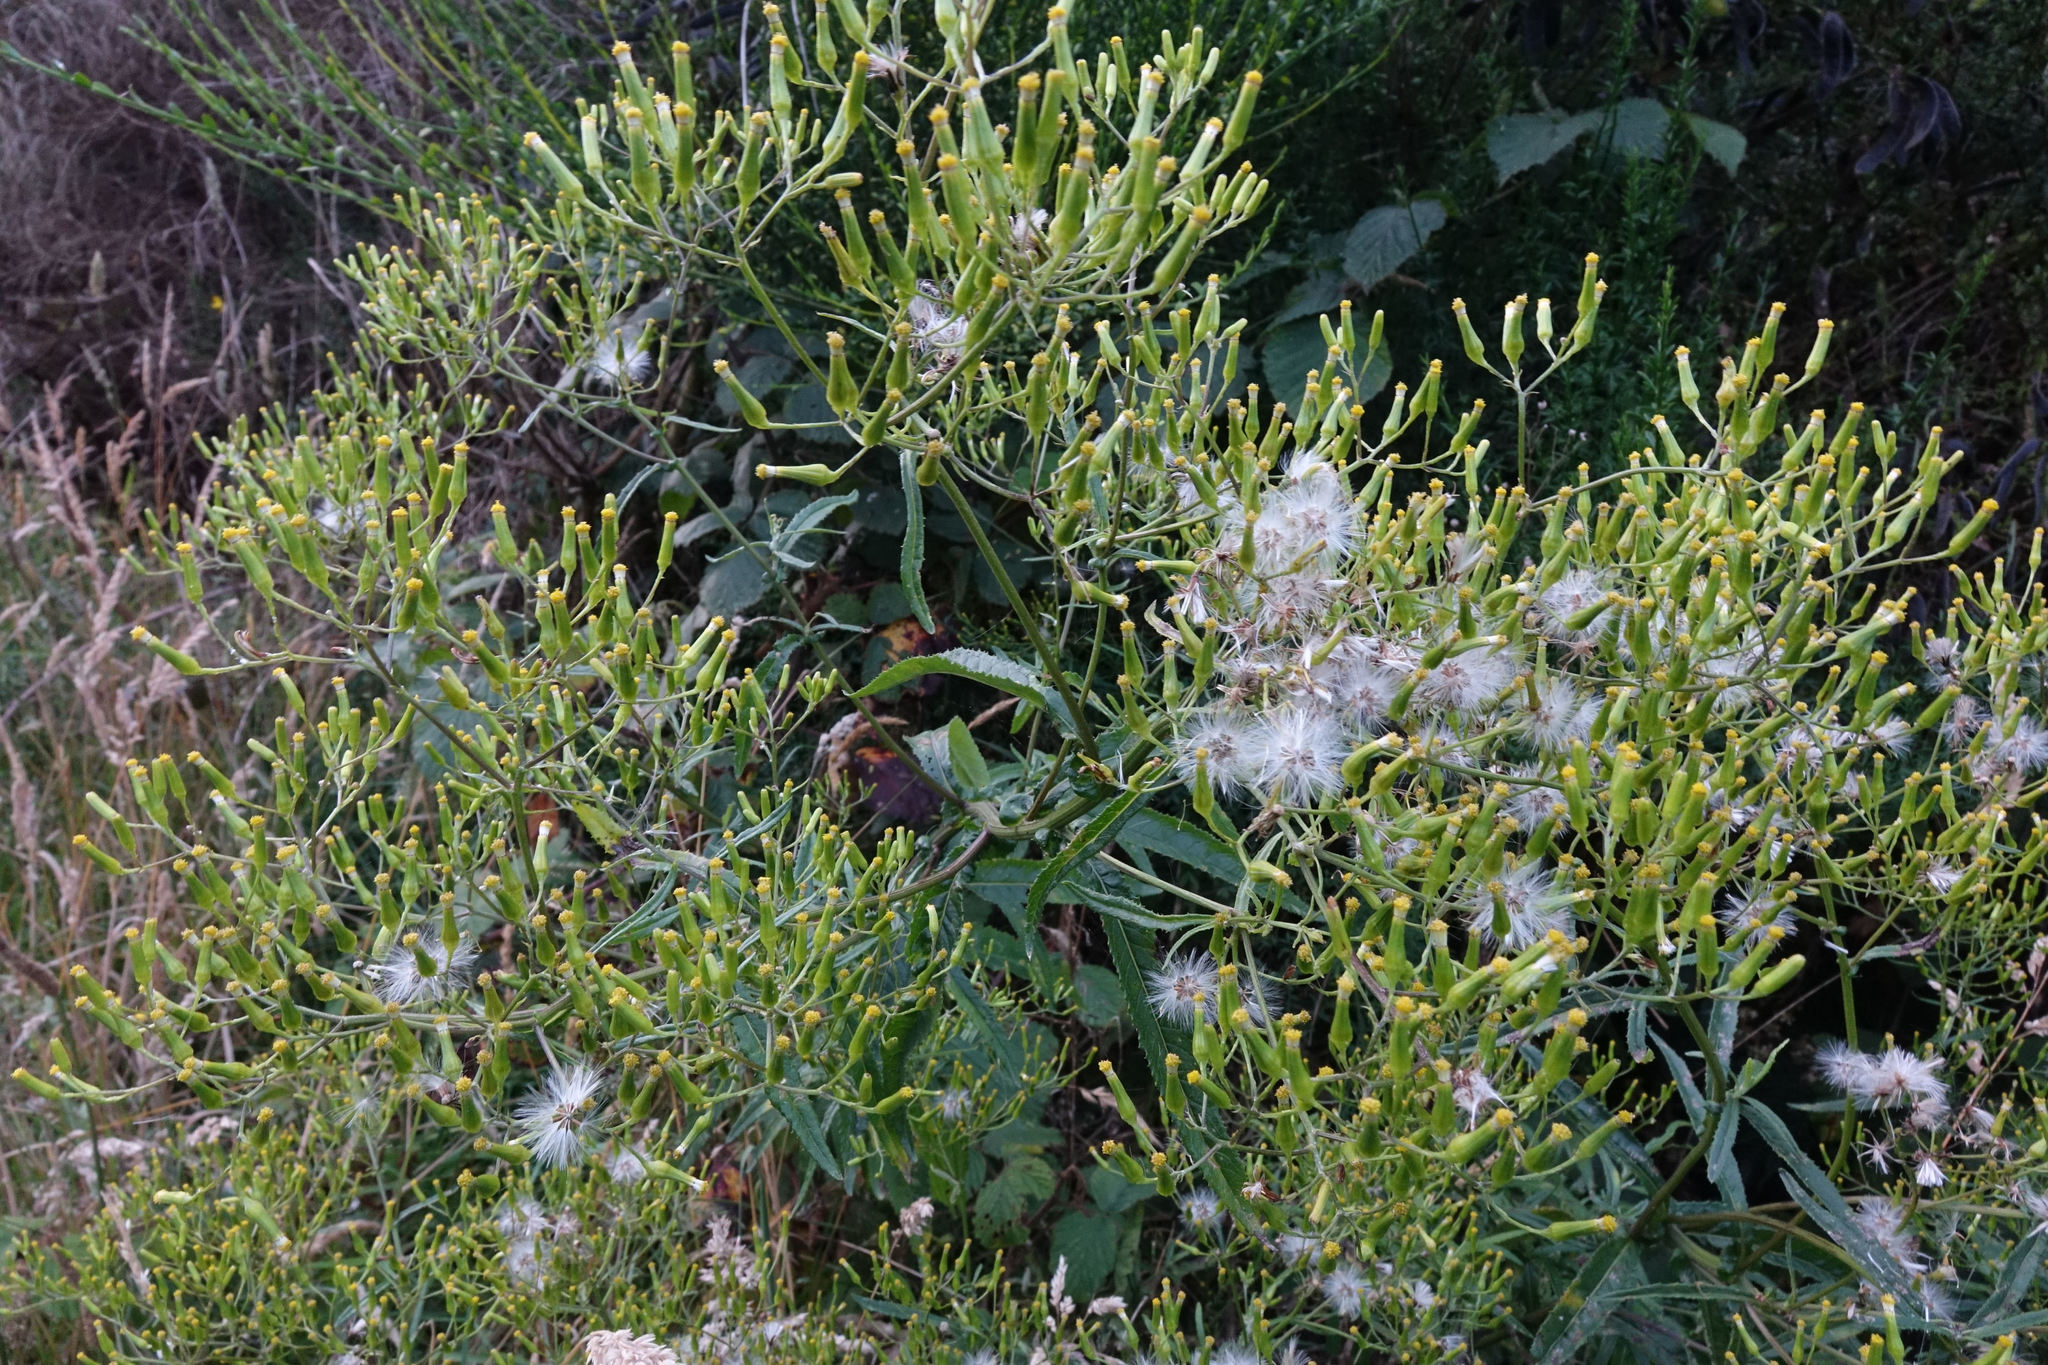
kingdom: Plantae
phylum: Tracheophyta
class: Magnoliopsida
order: Asterales
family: Asteraceae
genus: Senecio
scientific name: Senecio minimus
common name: Toothed fireweed
